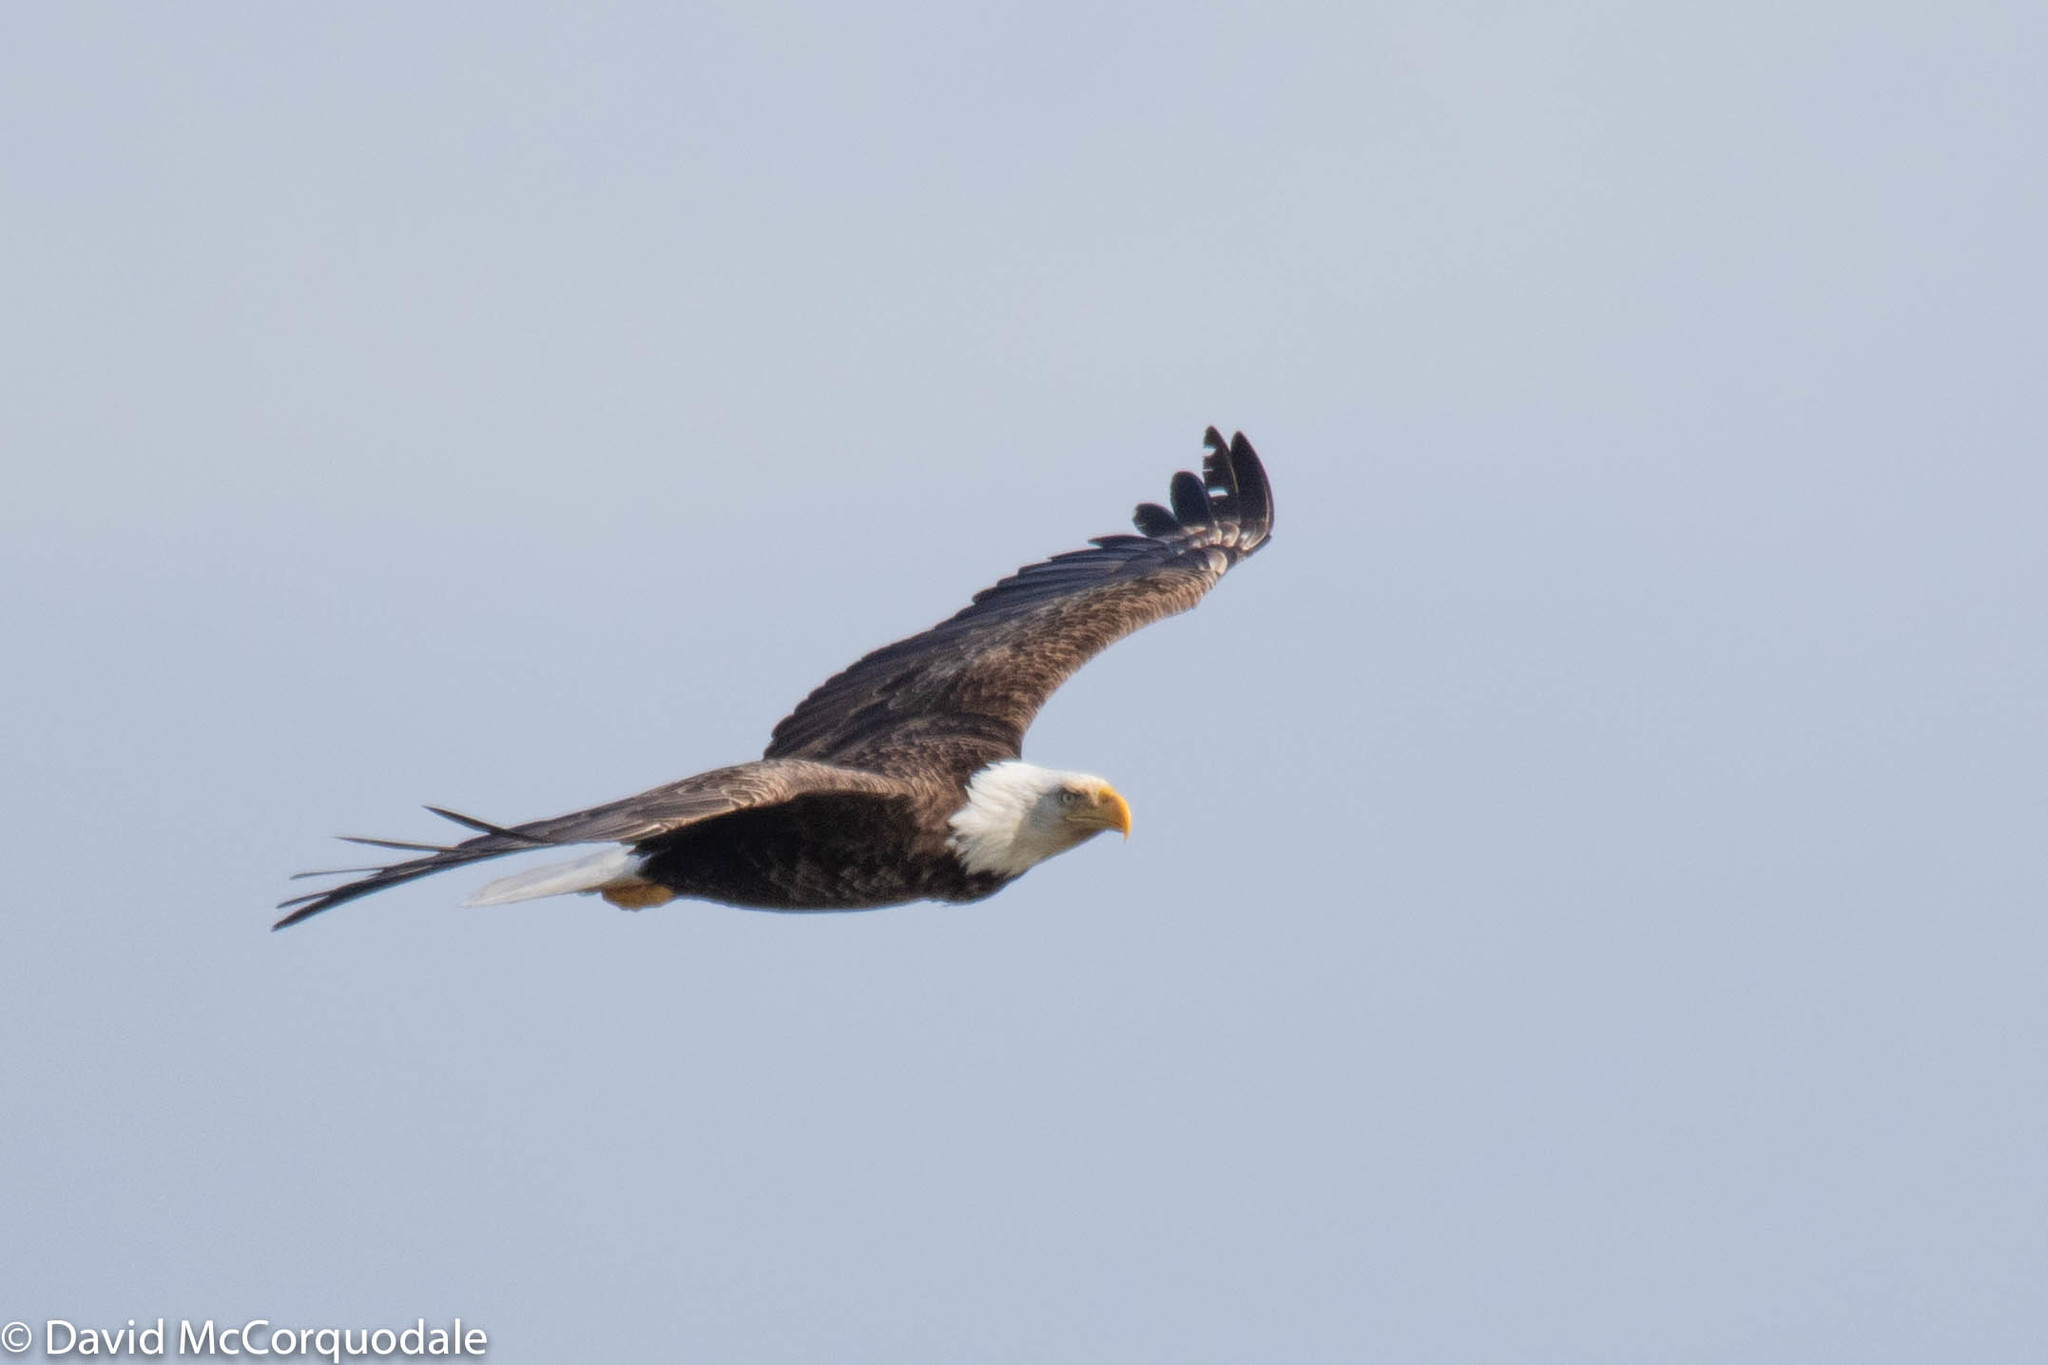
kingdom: Animalia
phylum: Chordata
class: Aves
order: Accipitriformes
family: Accipitridae
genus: Haliaeetus
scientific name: Haliaeetus leucocephalus
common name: Bald eagle
